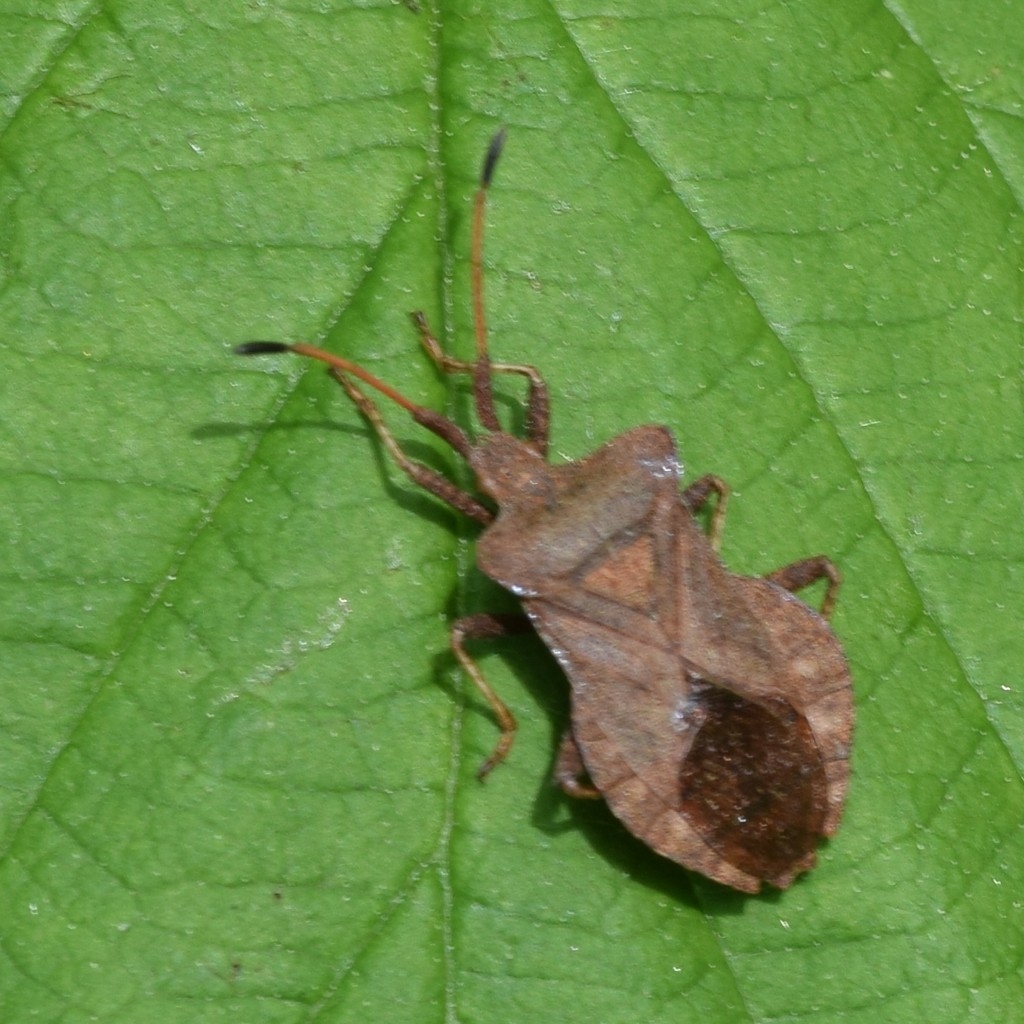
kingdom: Animalia
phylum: Arthropoda
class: Insecta
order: Hemiptera
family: Coreidae
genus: Coreus
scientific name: Coreus marginatus
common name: Dock bug
